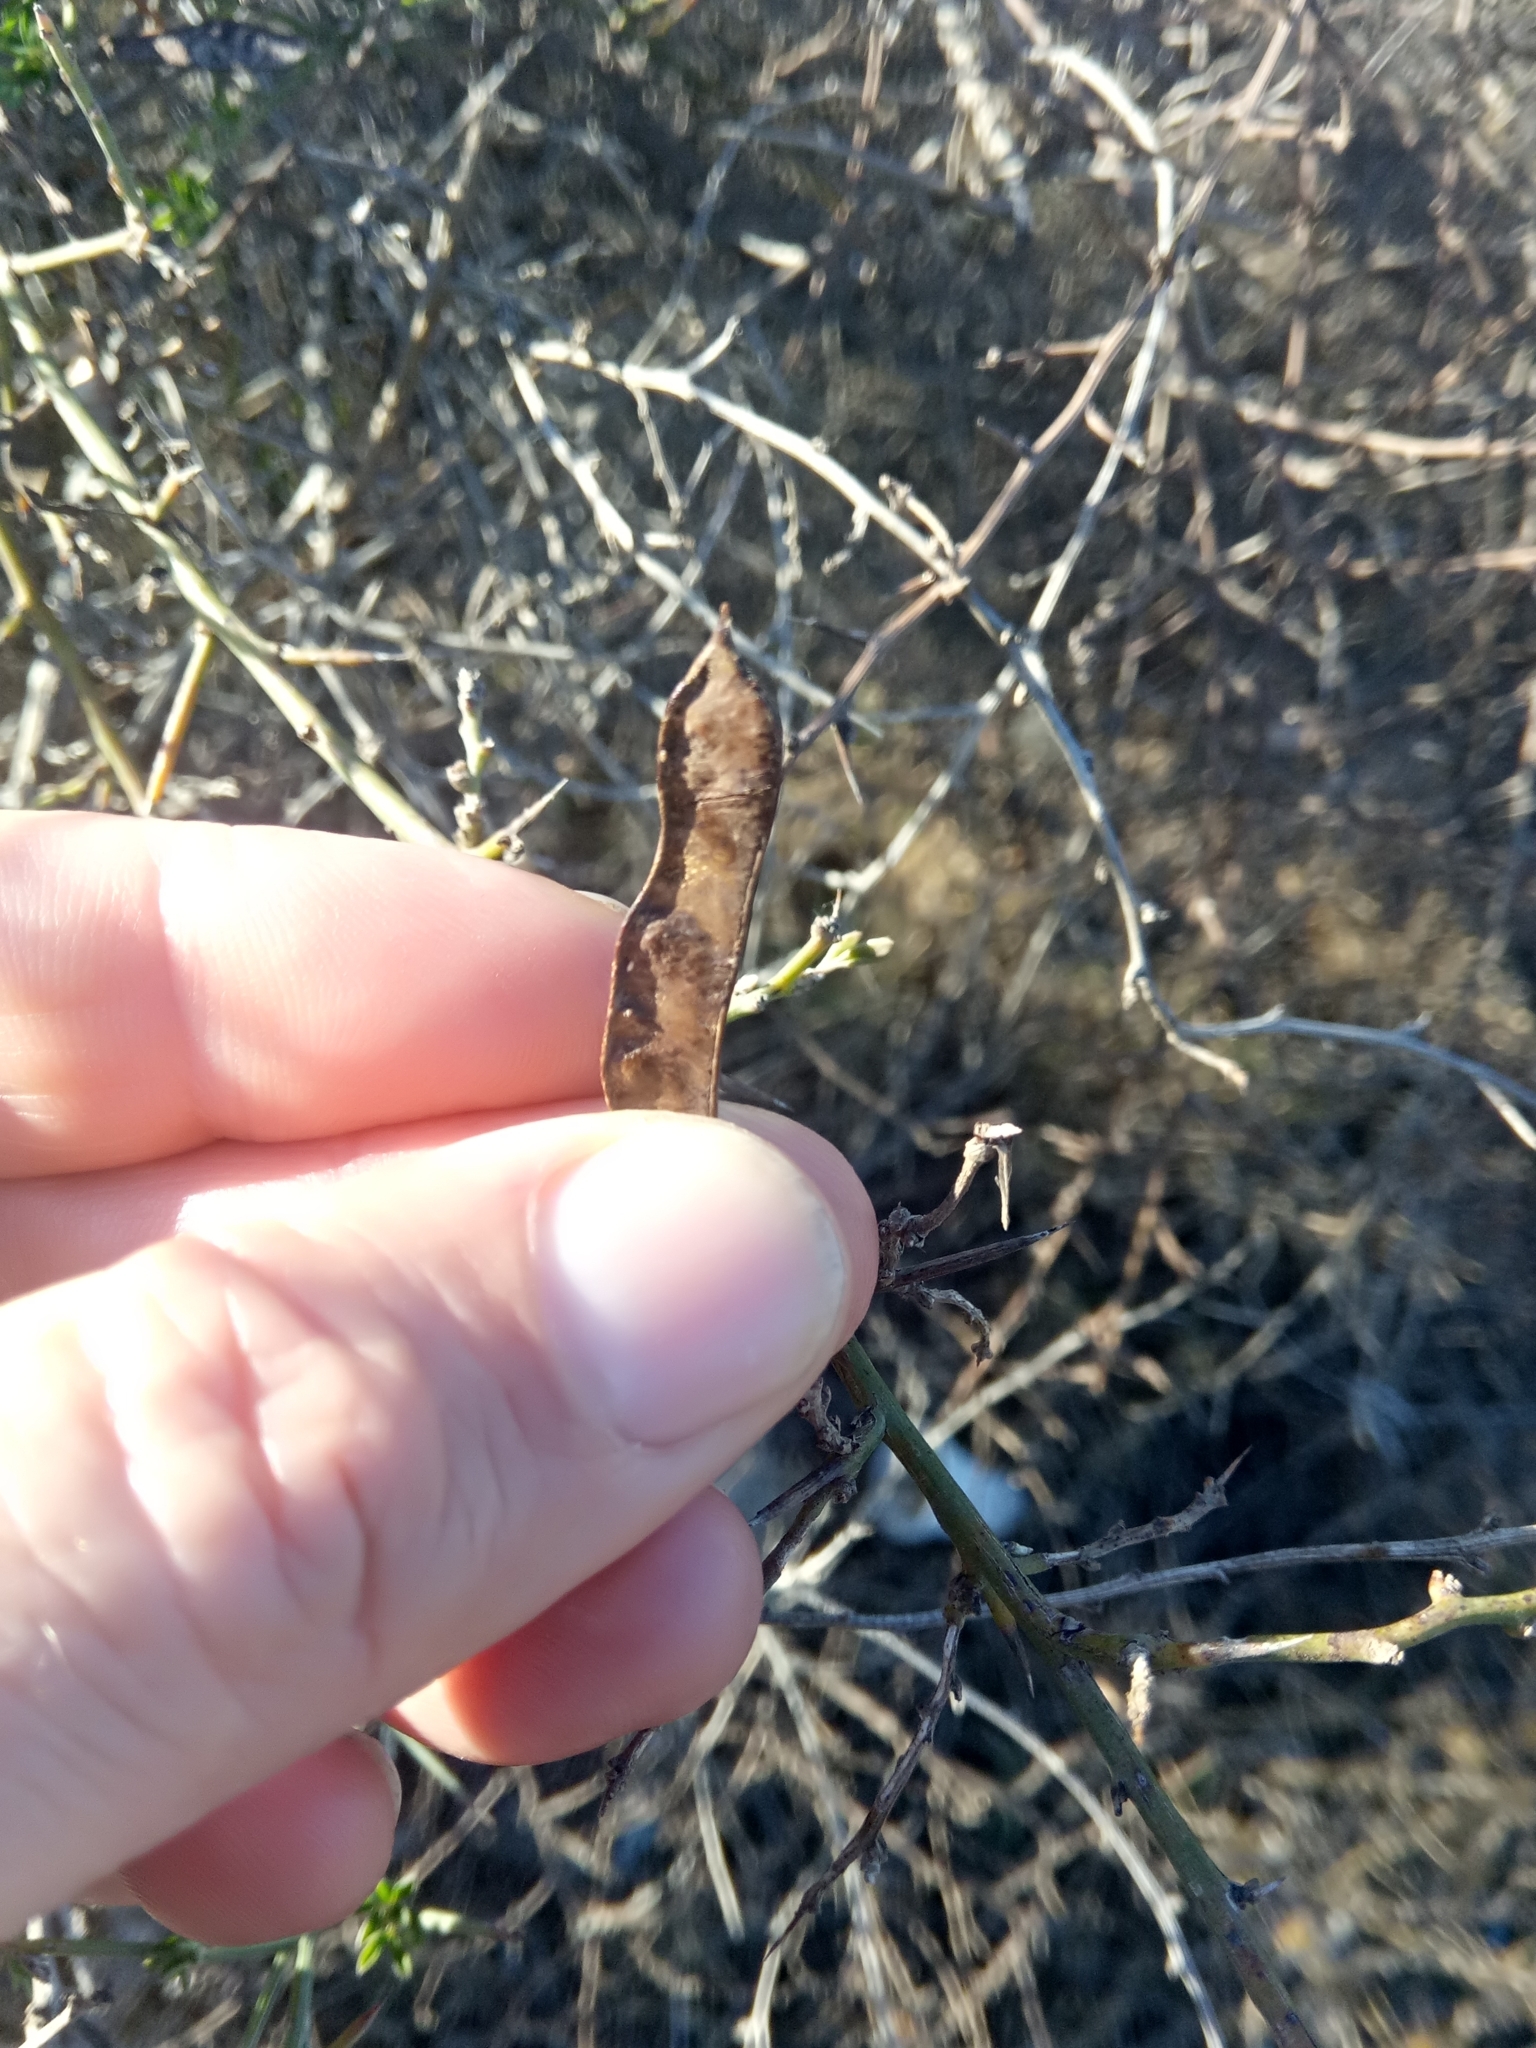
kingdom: Plantae
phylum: Tracheophyta
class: Magnoliopsida
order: Fabales
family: Fabaceae
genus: Calicotome
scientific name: Calicotome spinosa
